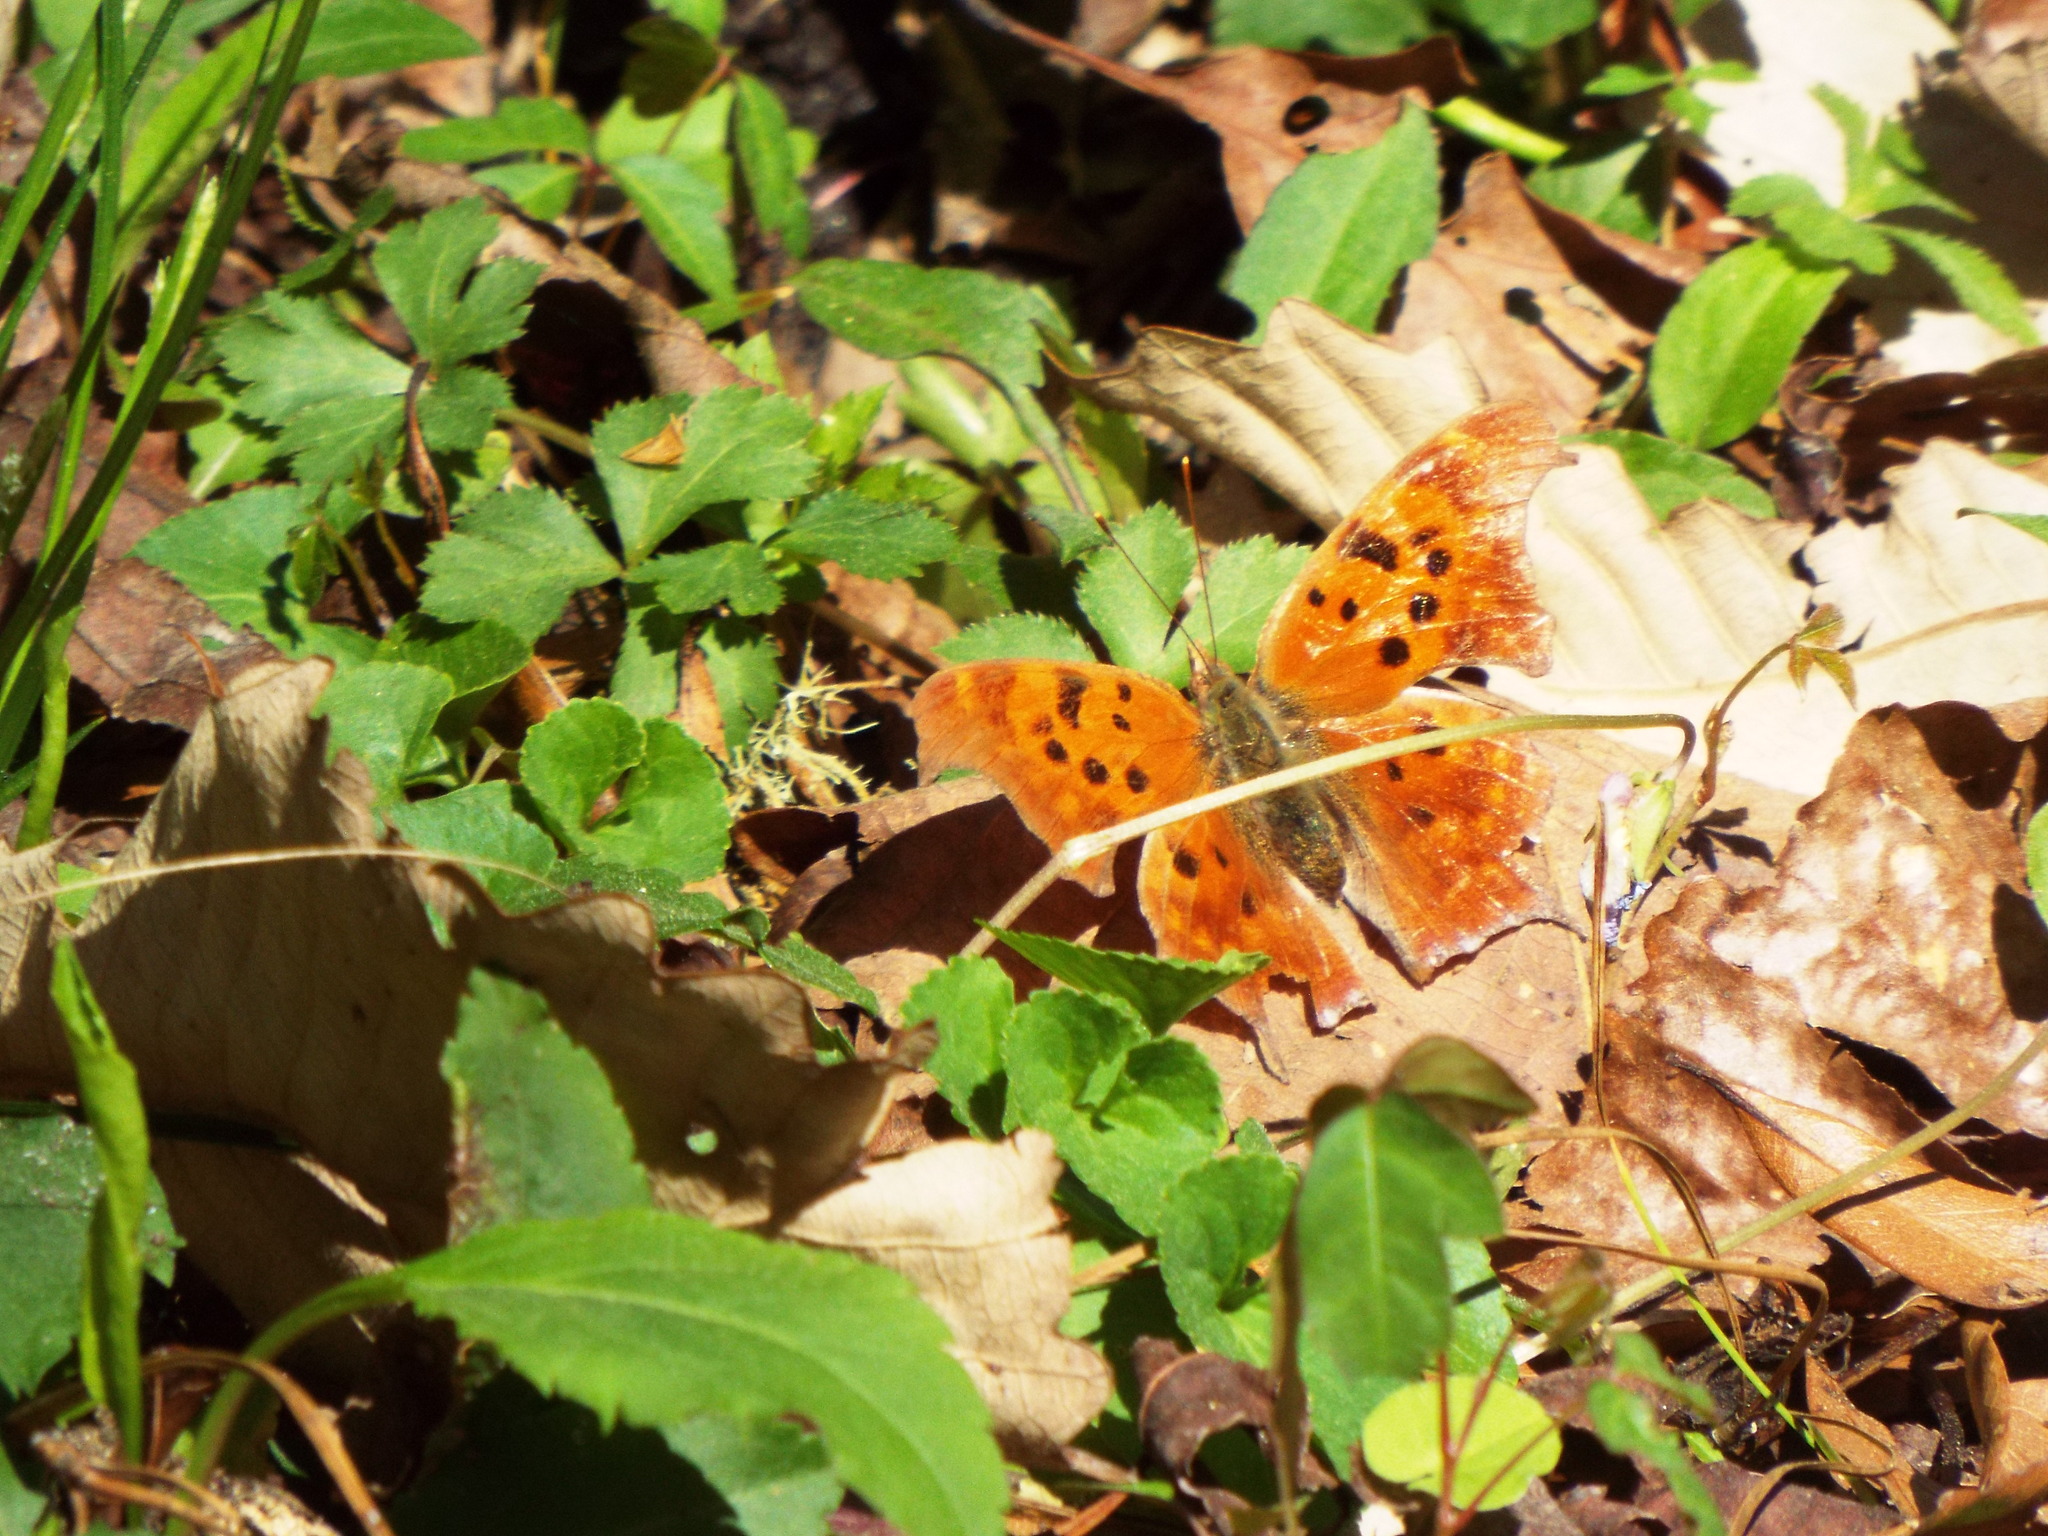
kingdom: Animalia
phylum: Arthropoda
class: Insecta
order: Lepidoptera
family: Nymphalidae
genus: Polygonia
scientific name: Polygonia interrogationis
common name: Question mark
